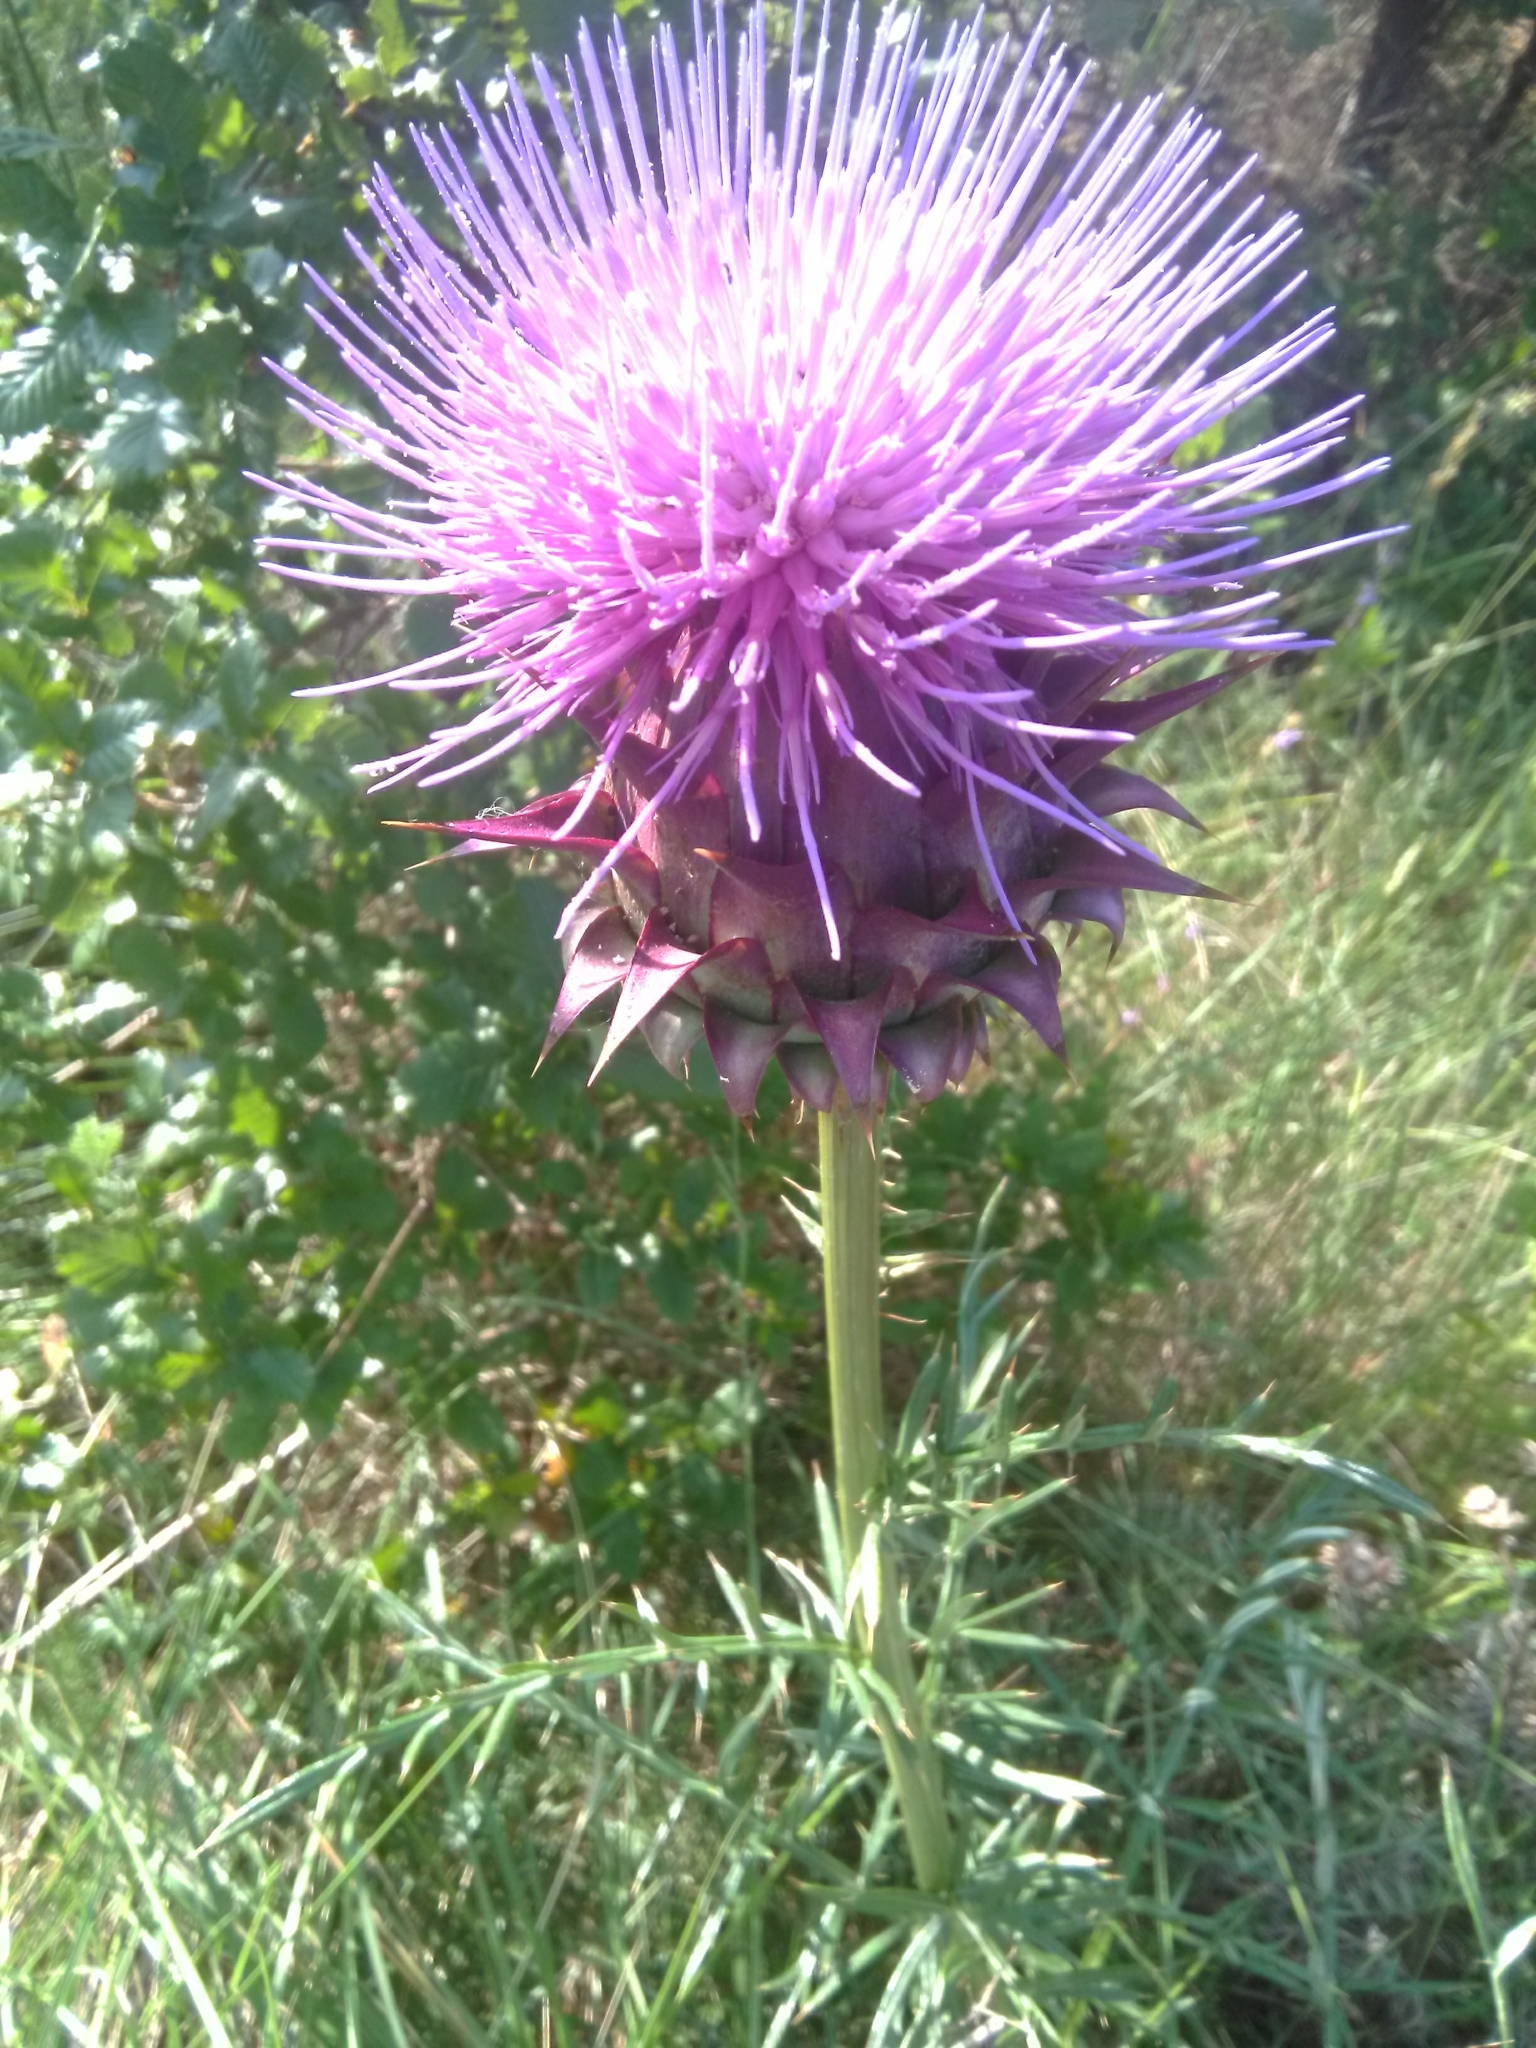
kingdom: Plantae
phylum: Tracheophyta
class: Magnoliopsida
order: Asterales
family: Asteraceae
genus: Cynara
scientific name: Cynara cardunculus
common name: Globe artichoke
